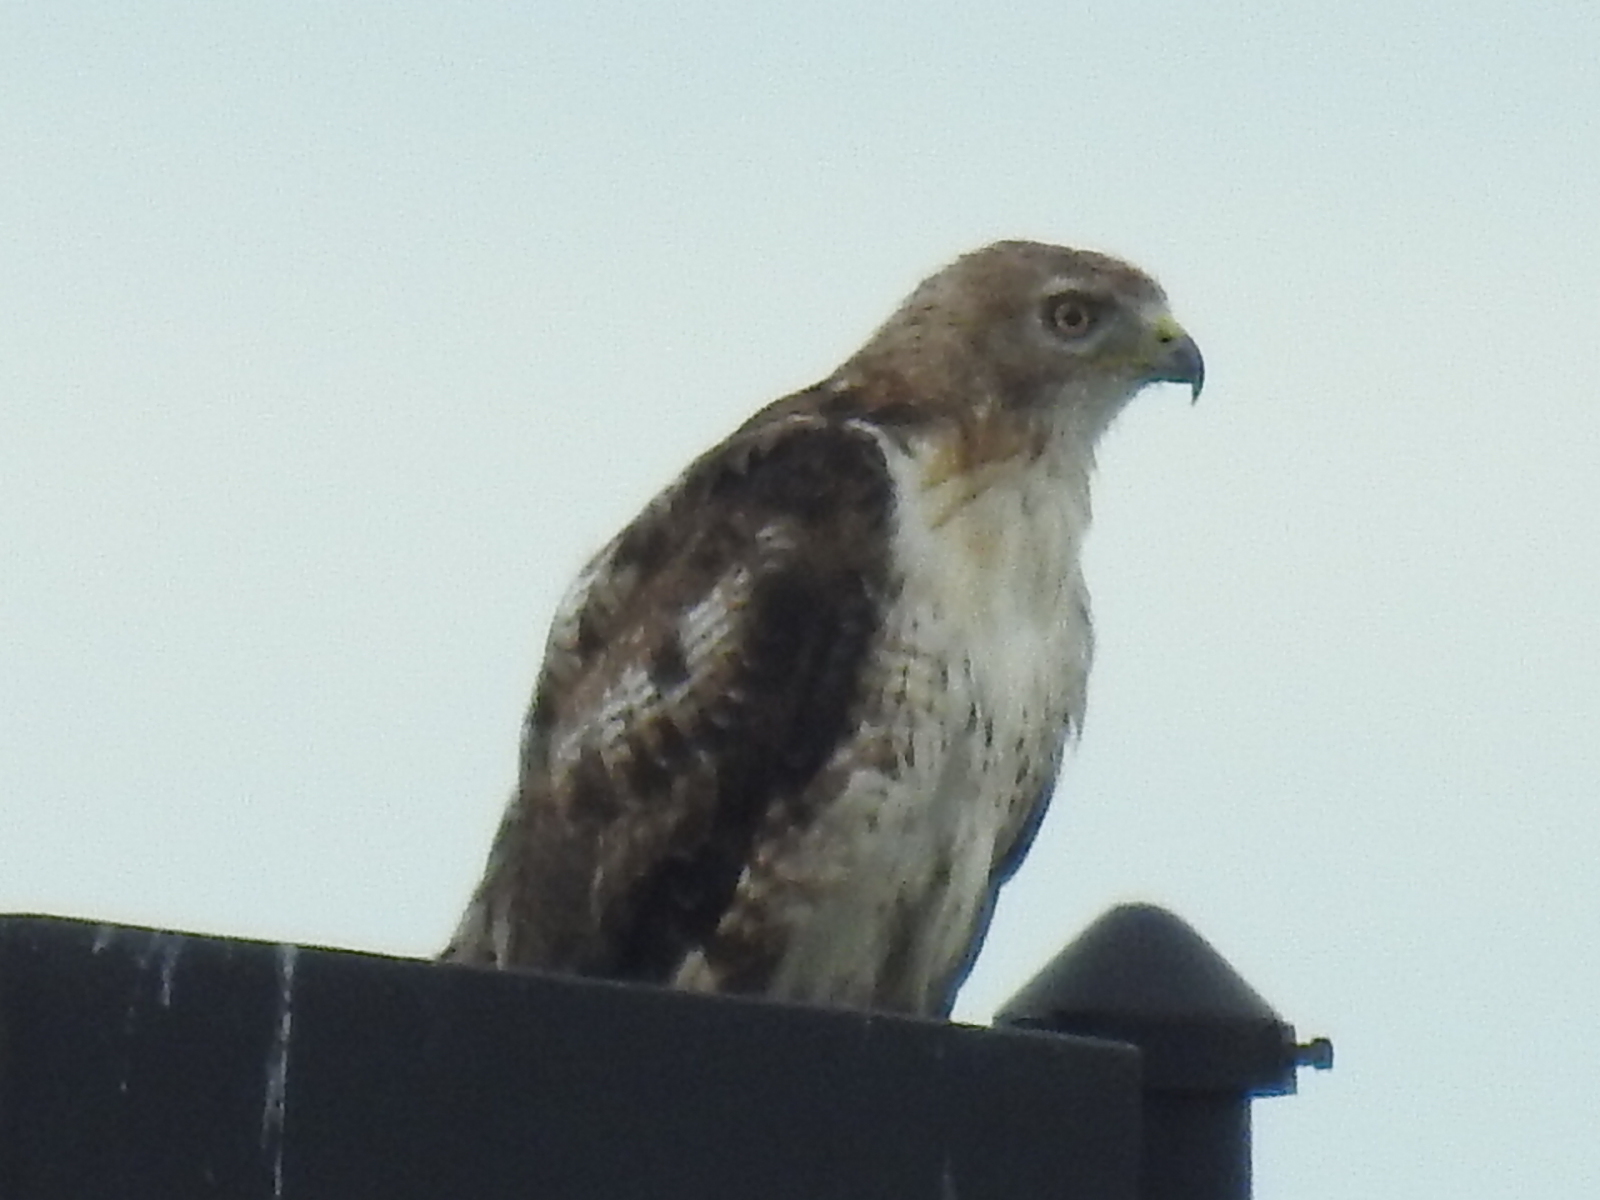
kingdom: Animalia
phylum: Chordata
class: Aves
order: Accipitriformes
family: Accipitridae
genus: Buteo
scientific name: Buteo jamaicensis
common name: Red-tailed hawk
